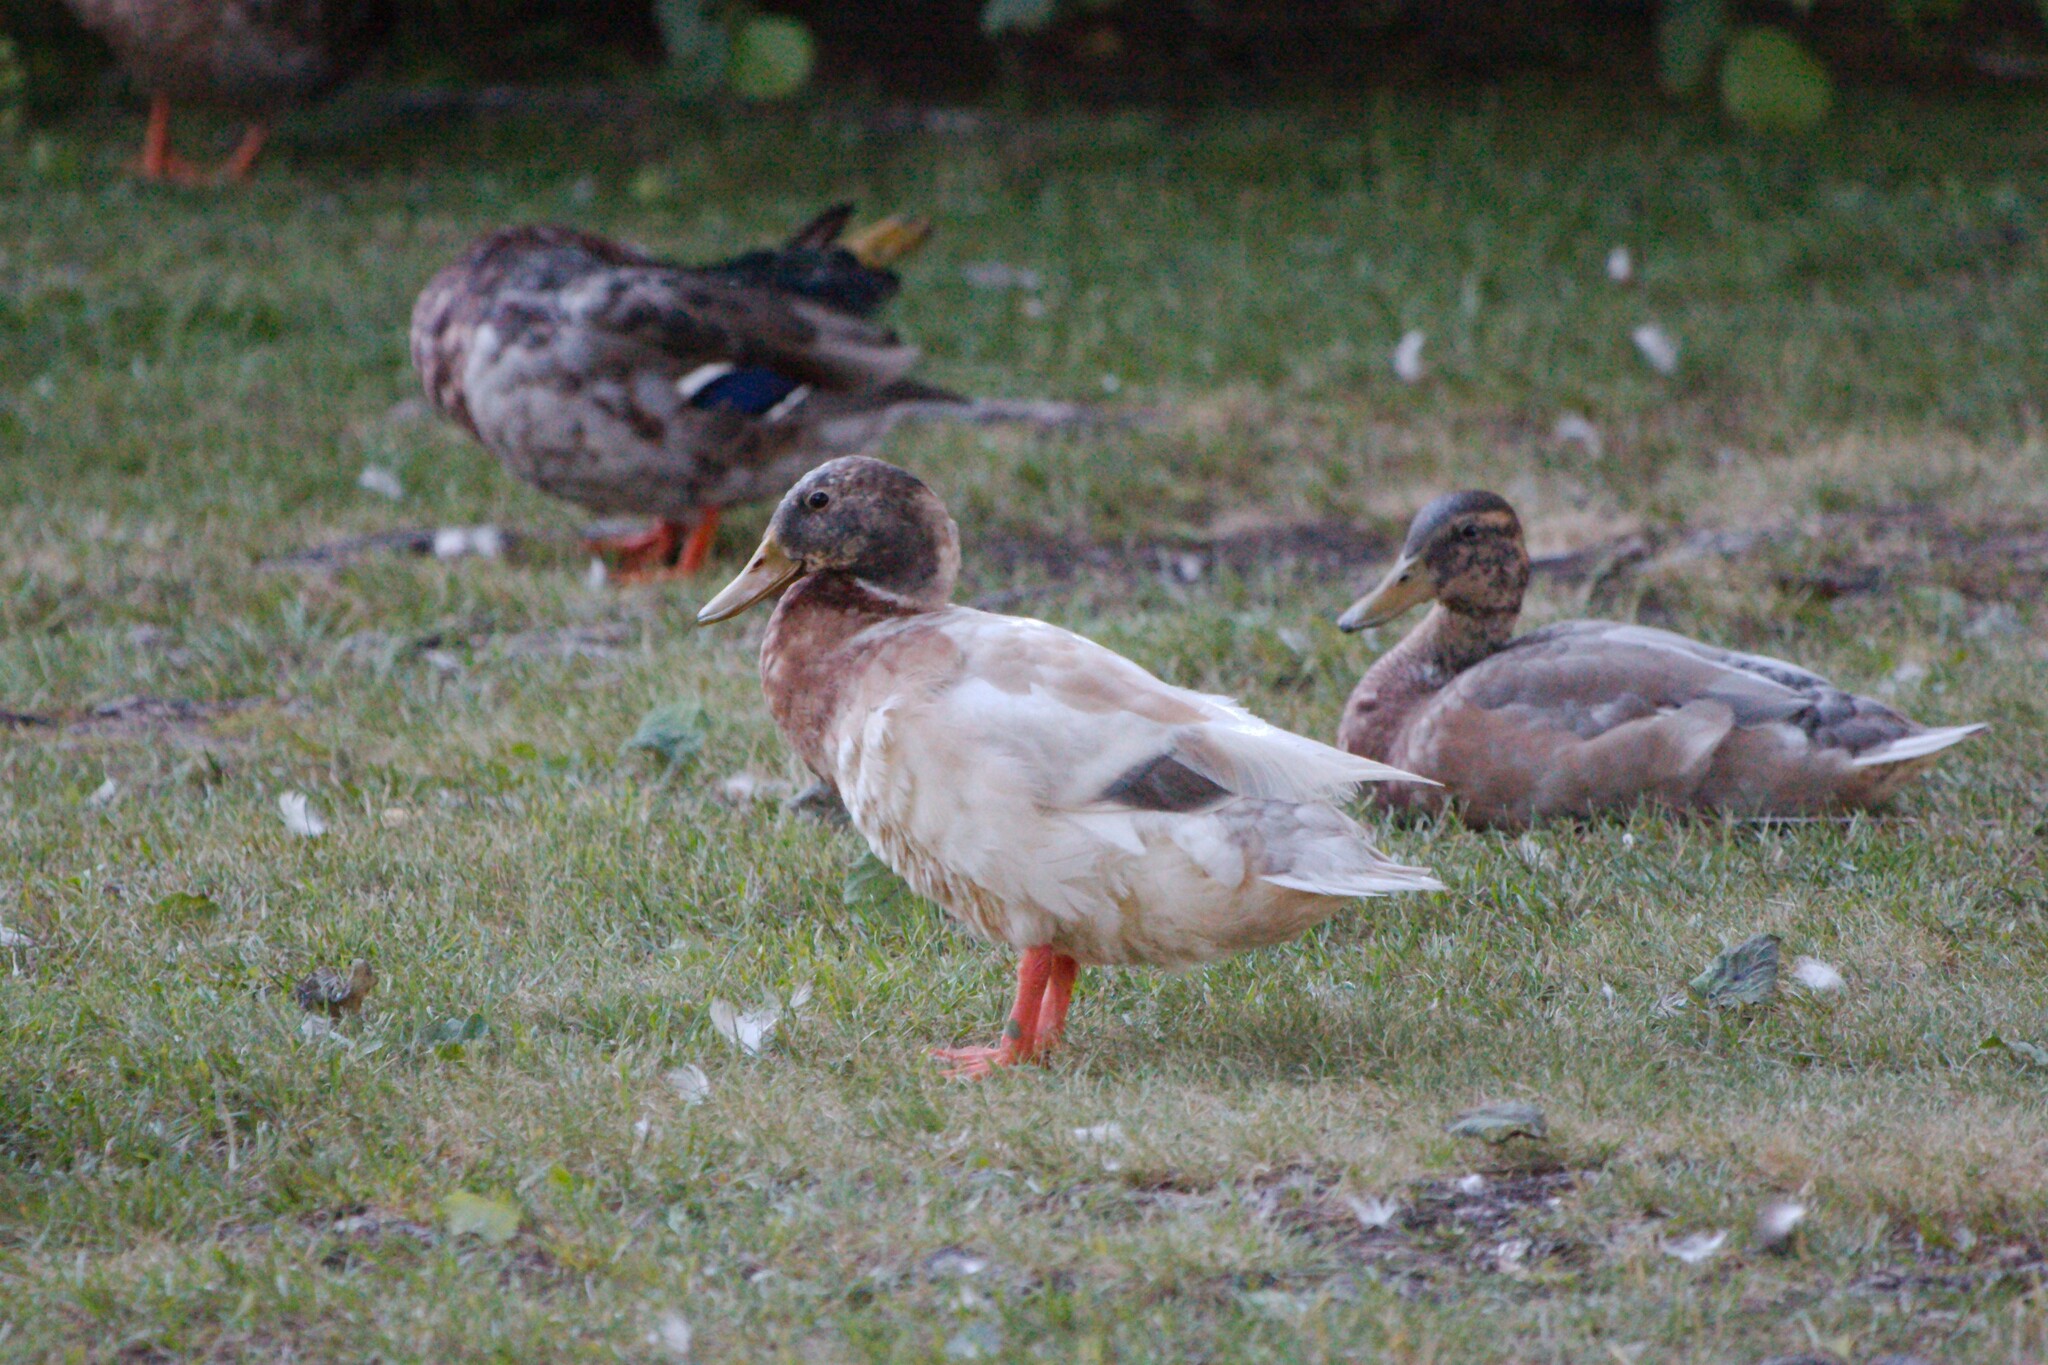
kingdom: Animalia
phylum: Chordata
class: Aves
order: Anseriformes
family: Anatidae
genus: Anas
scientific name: Anas platyrhynchos
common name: Mallard
